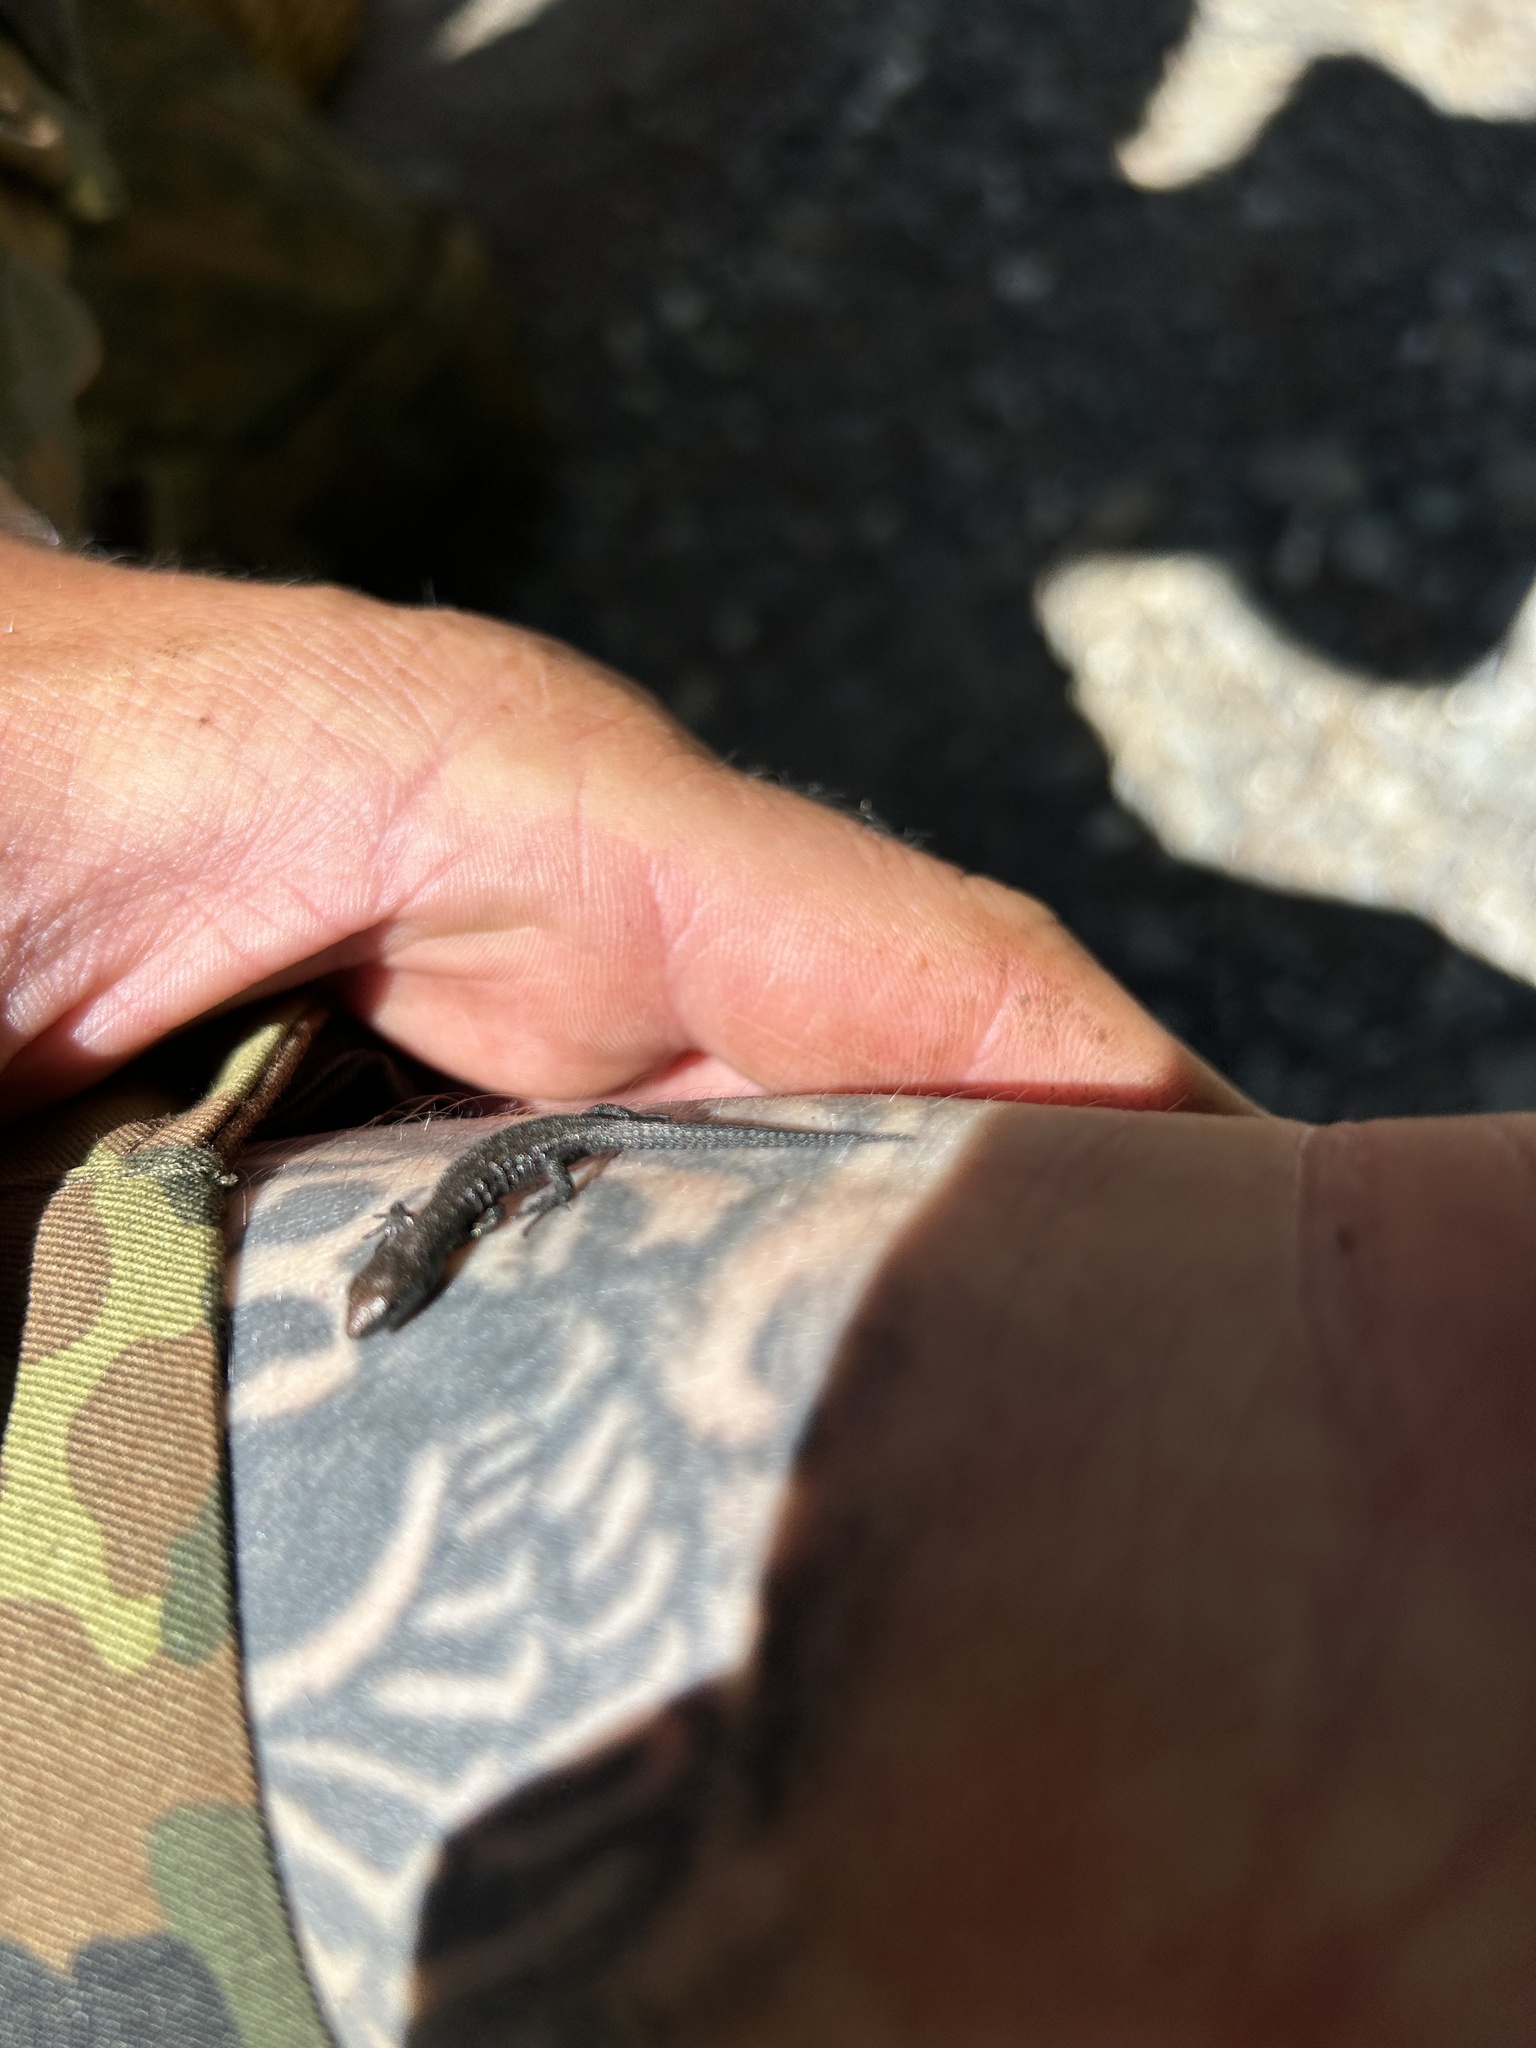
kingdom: Animalia
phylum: Chordata
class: Squamata
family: Lacertidae
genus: Zootoca
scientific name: Zootoca vivipara
